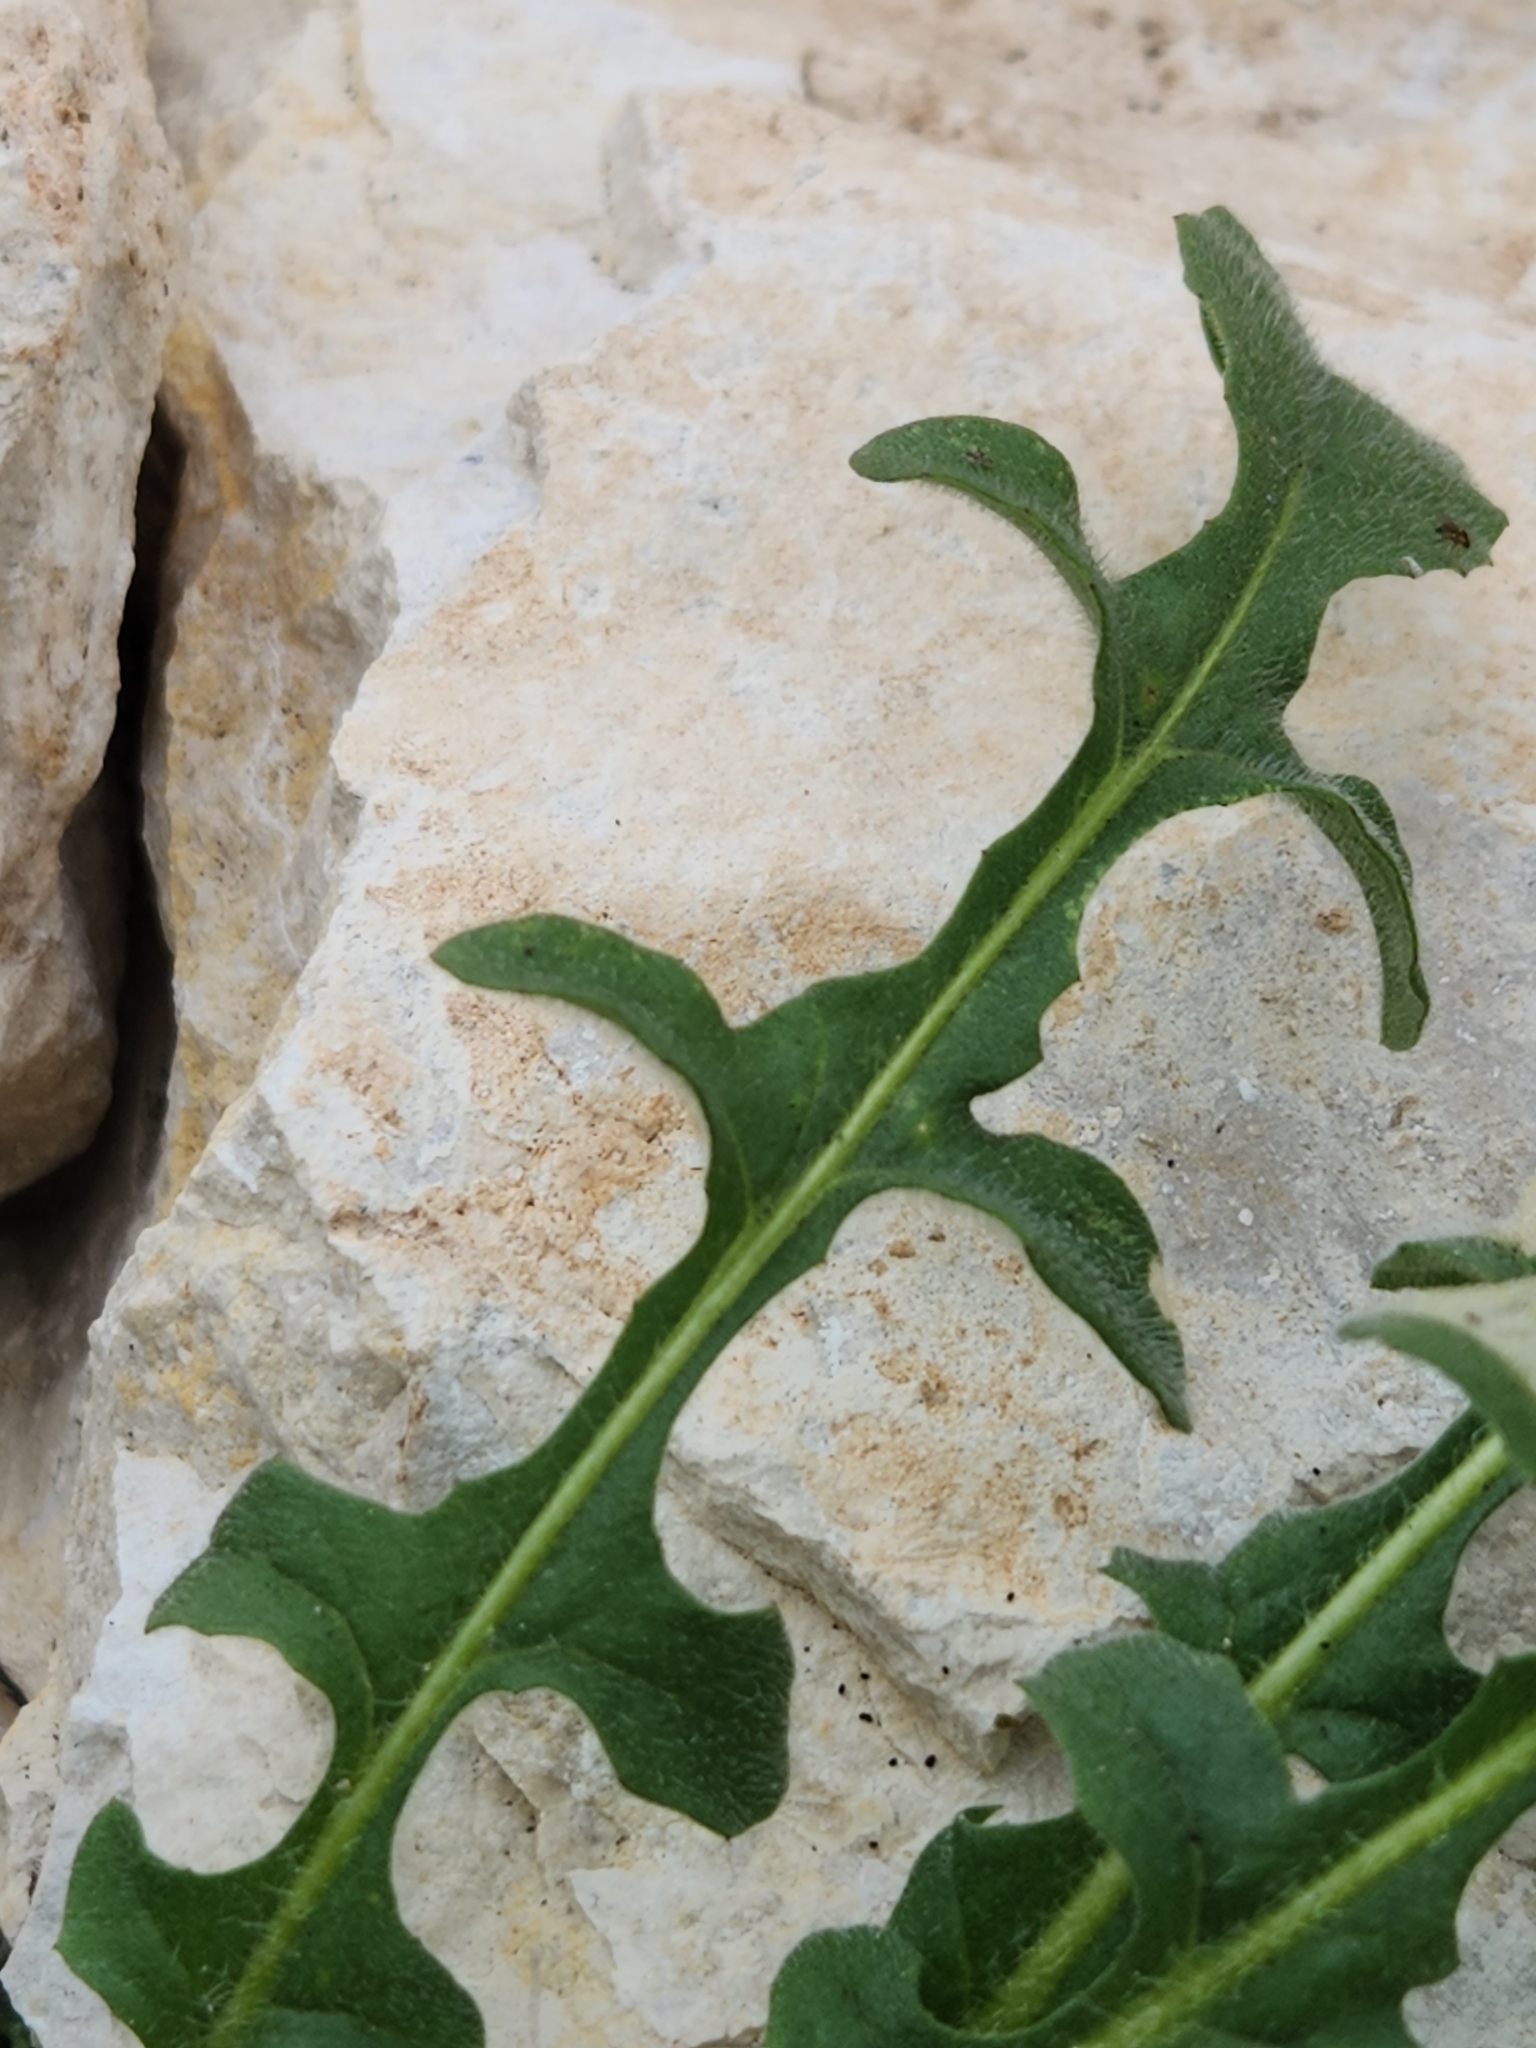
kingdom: Plantae
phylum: Tracheophyta
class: Magnoliopsida
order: Asterales
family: Asteraceae
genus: Centaurea
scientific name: Centaurea melitensis
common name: Maltese star-thistle
